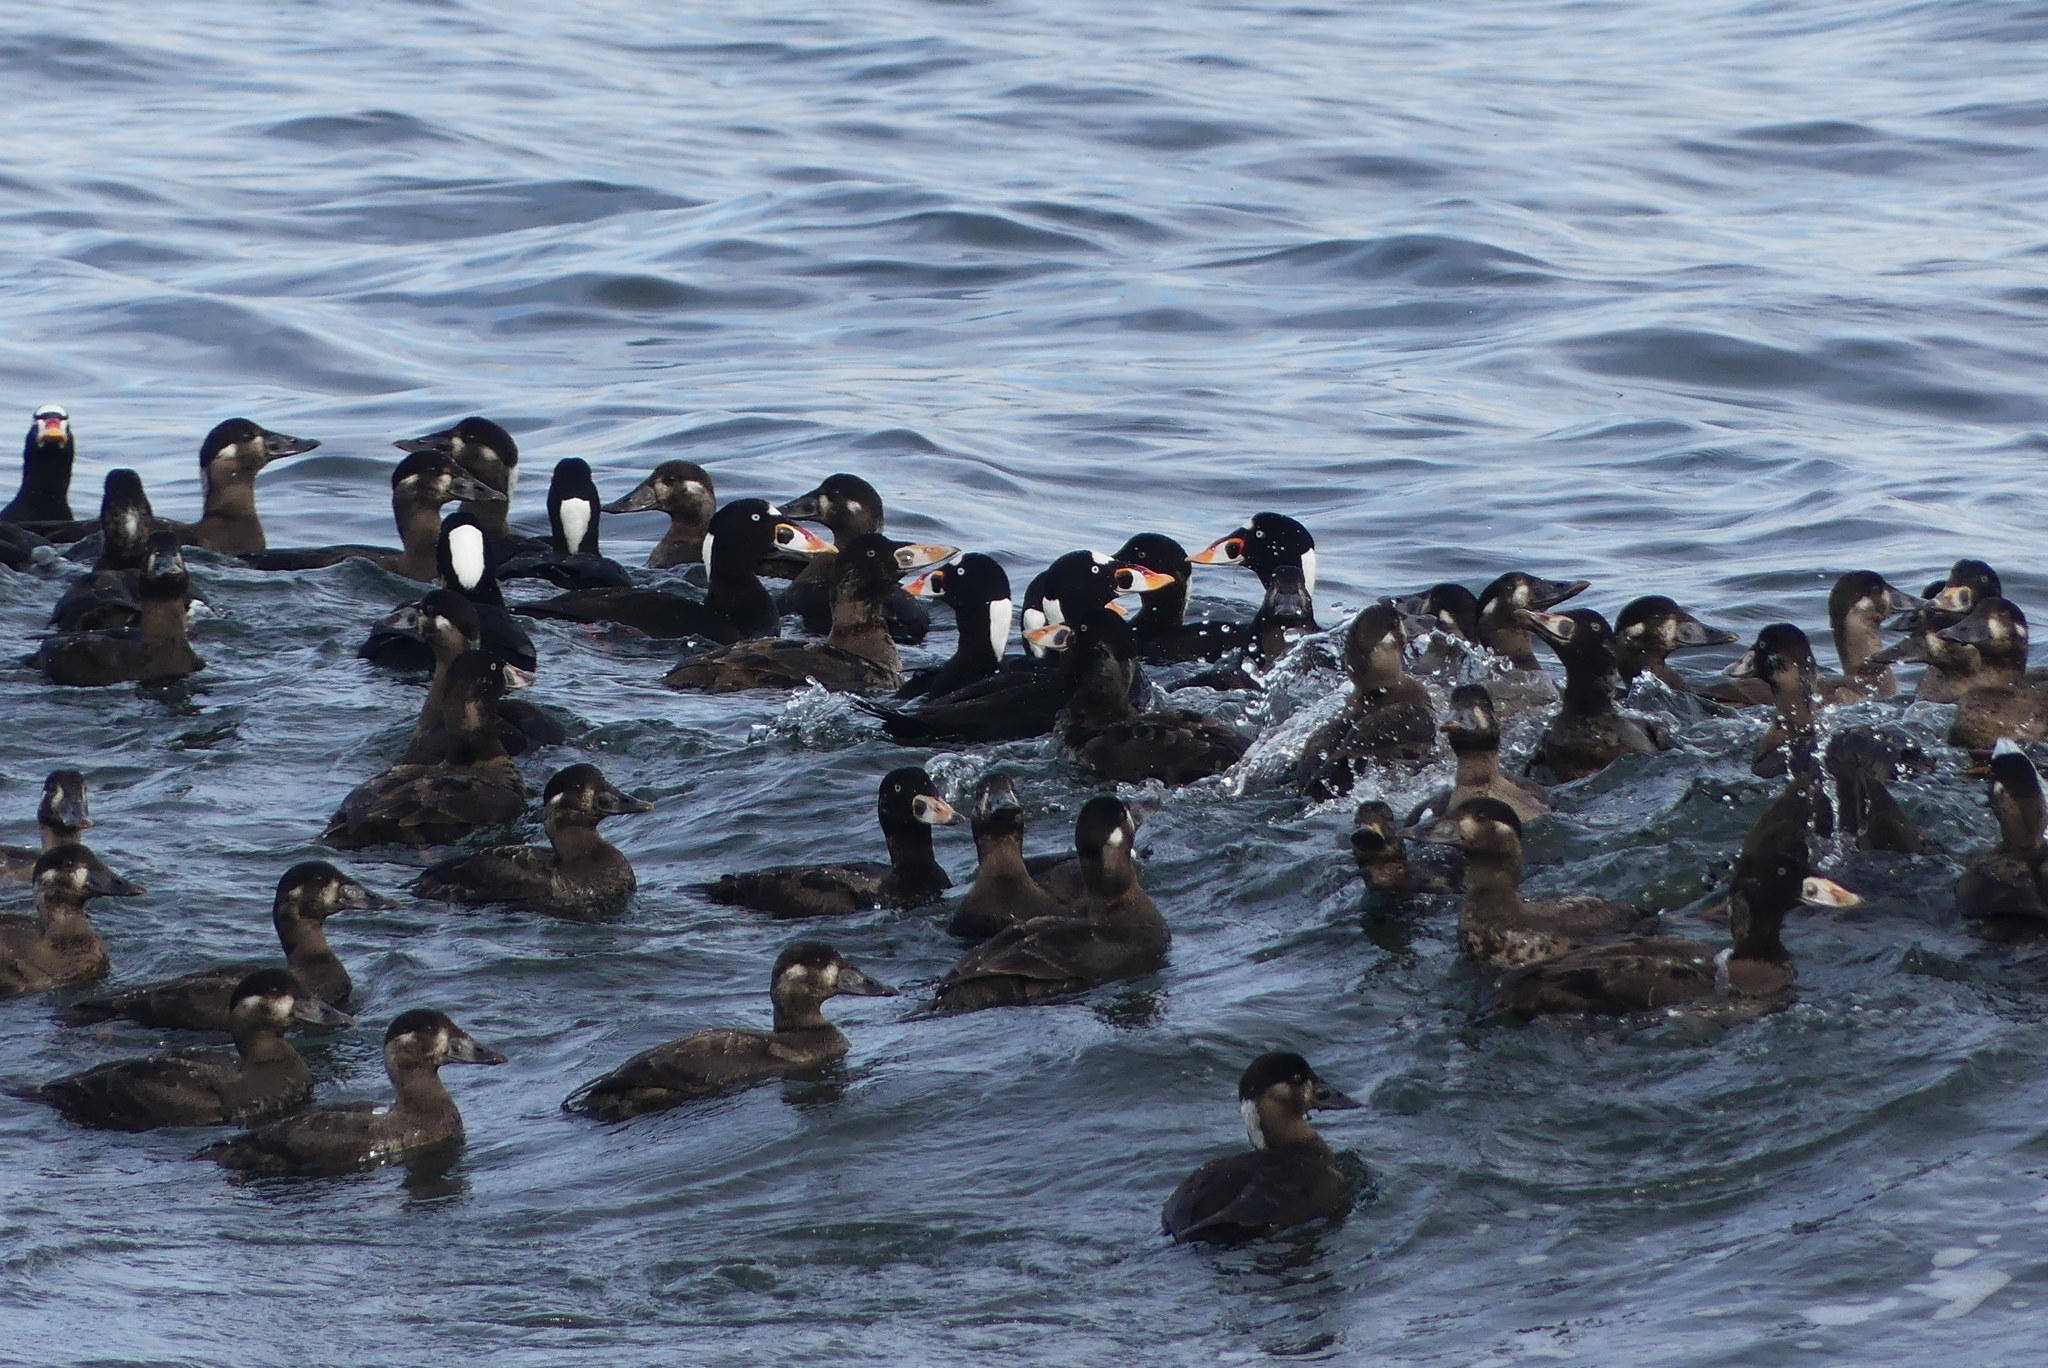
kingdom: Animalia
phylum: Chordata
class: Aves
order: Anseriformes
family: Anatidae
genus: Melanitta
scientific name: Melanitta perspicillata
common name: Surf scoter
